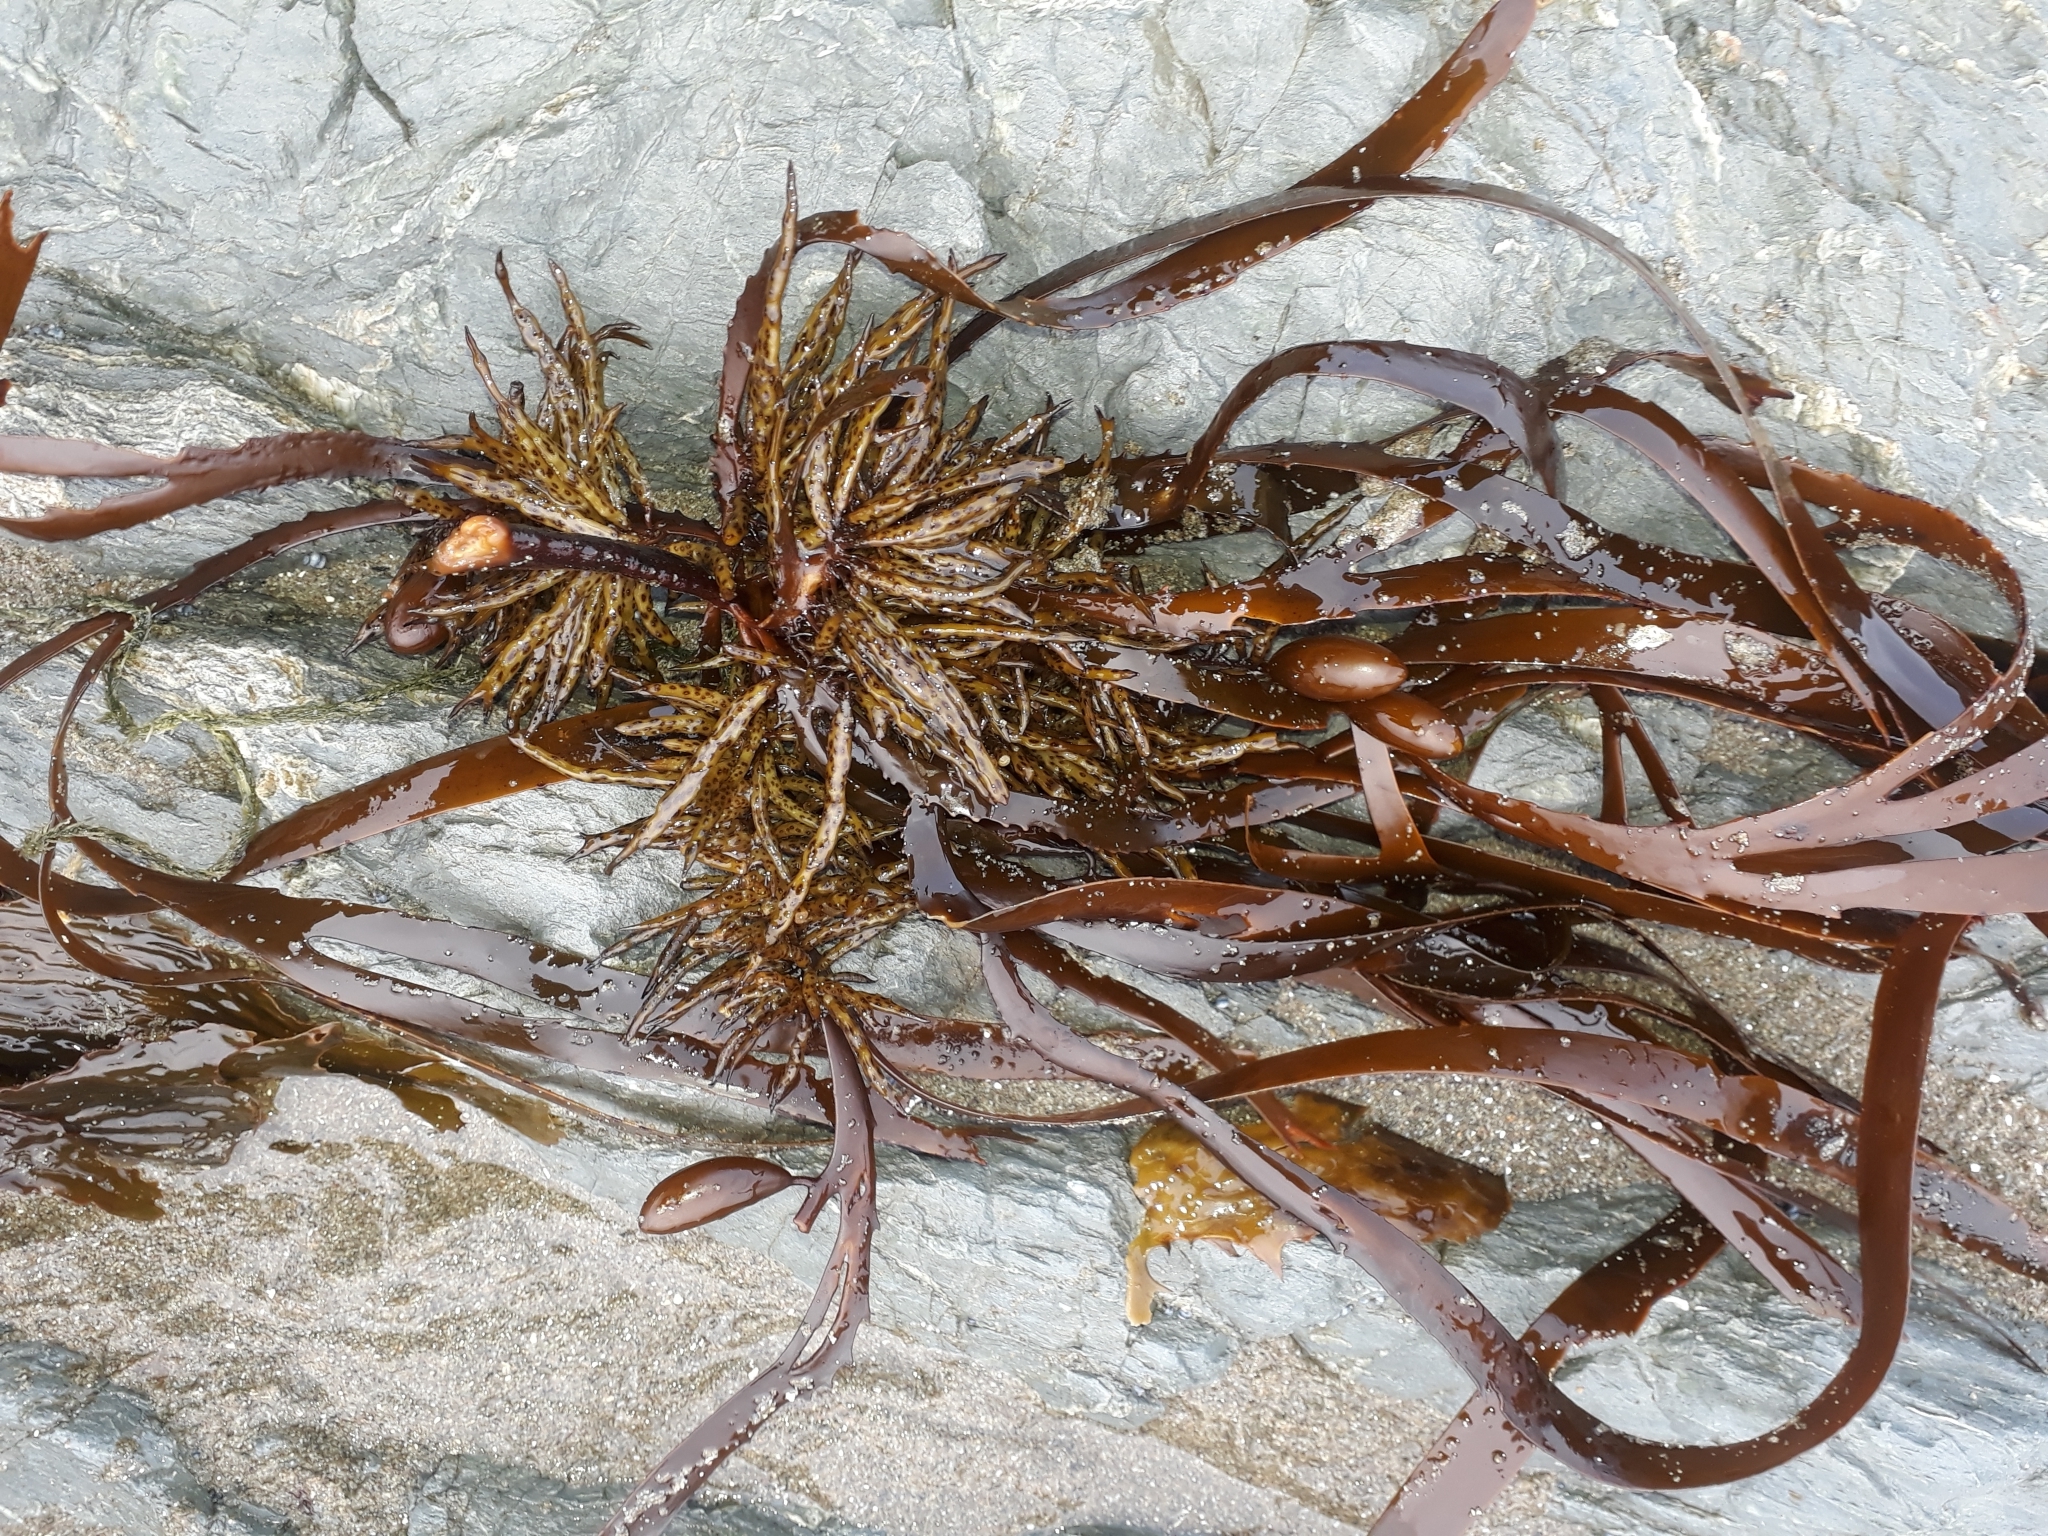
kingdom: Chromista
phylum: Ochrophyta
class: Phaeophyceae
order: Fucales
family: Seirococcaceae
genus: Marginariella
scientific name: Marginariella boryana
